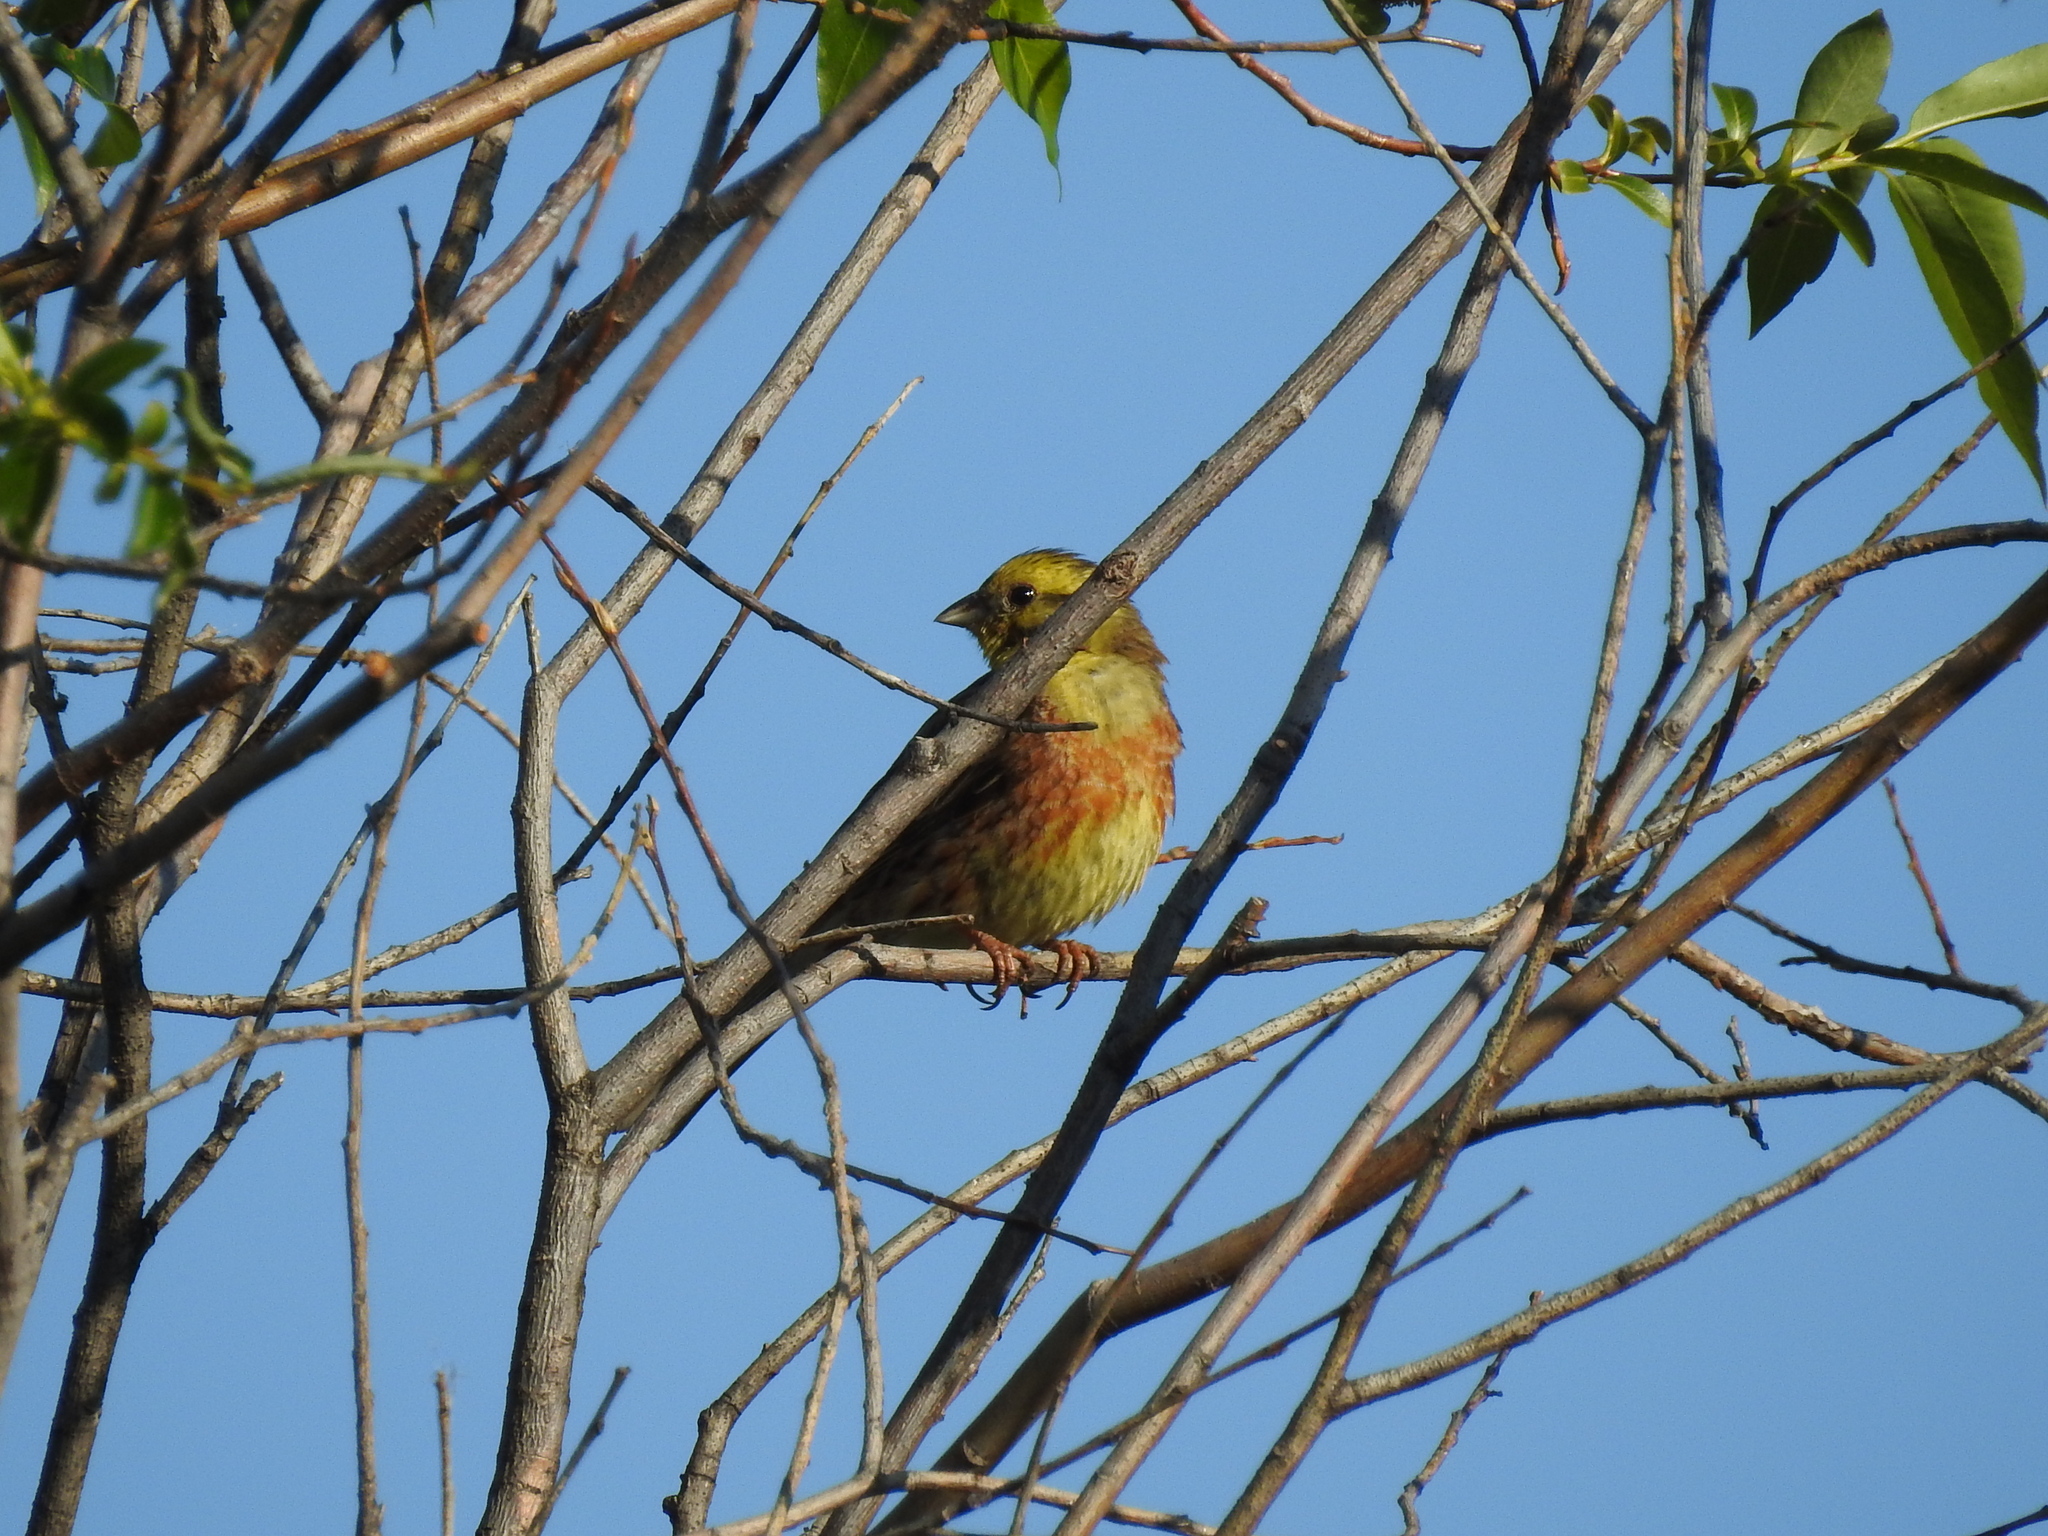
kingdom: Animalia
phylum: Chordata
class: Aves
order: Passeriformes
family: Emberizidae
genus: Emberiza
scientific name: Emberiza citrinella
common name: Yellowhammer
